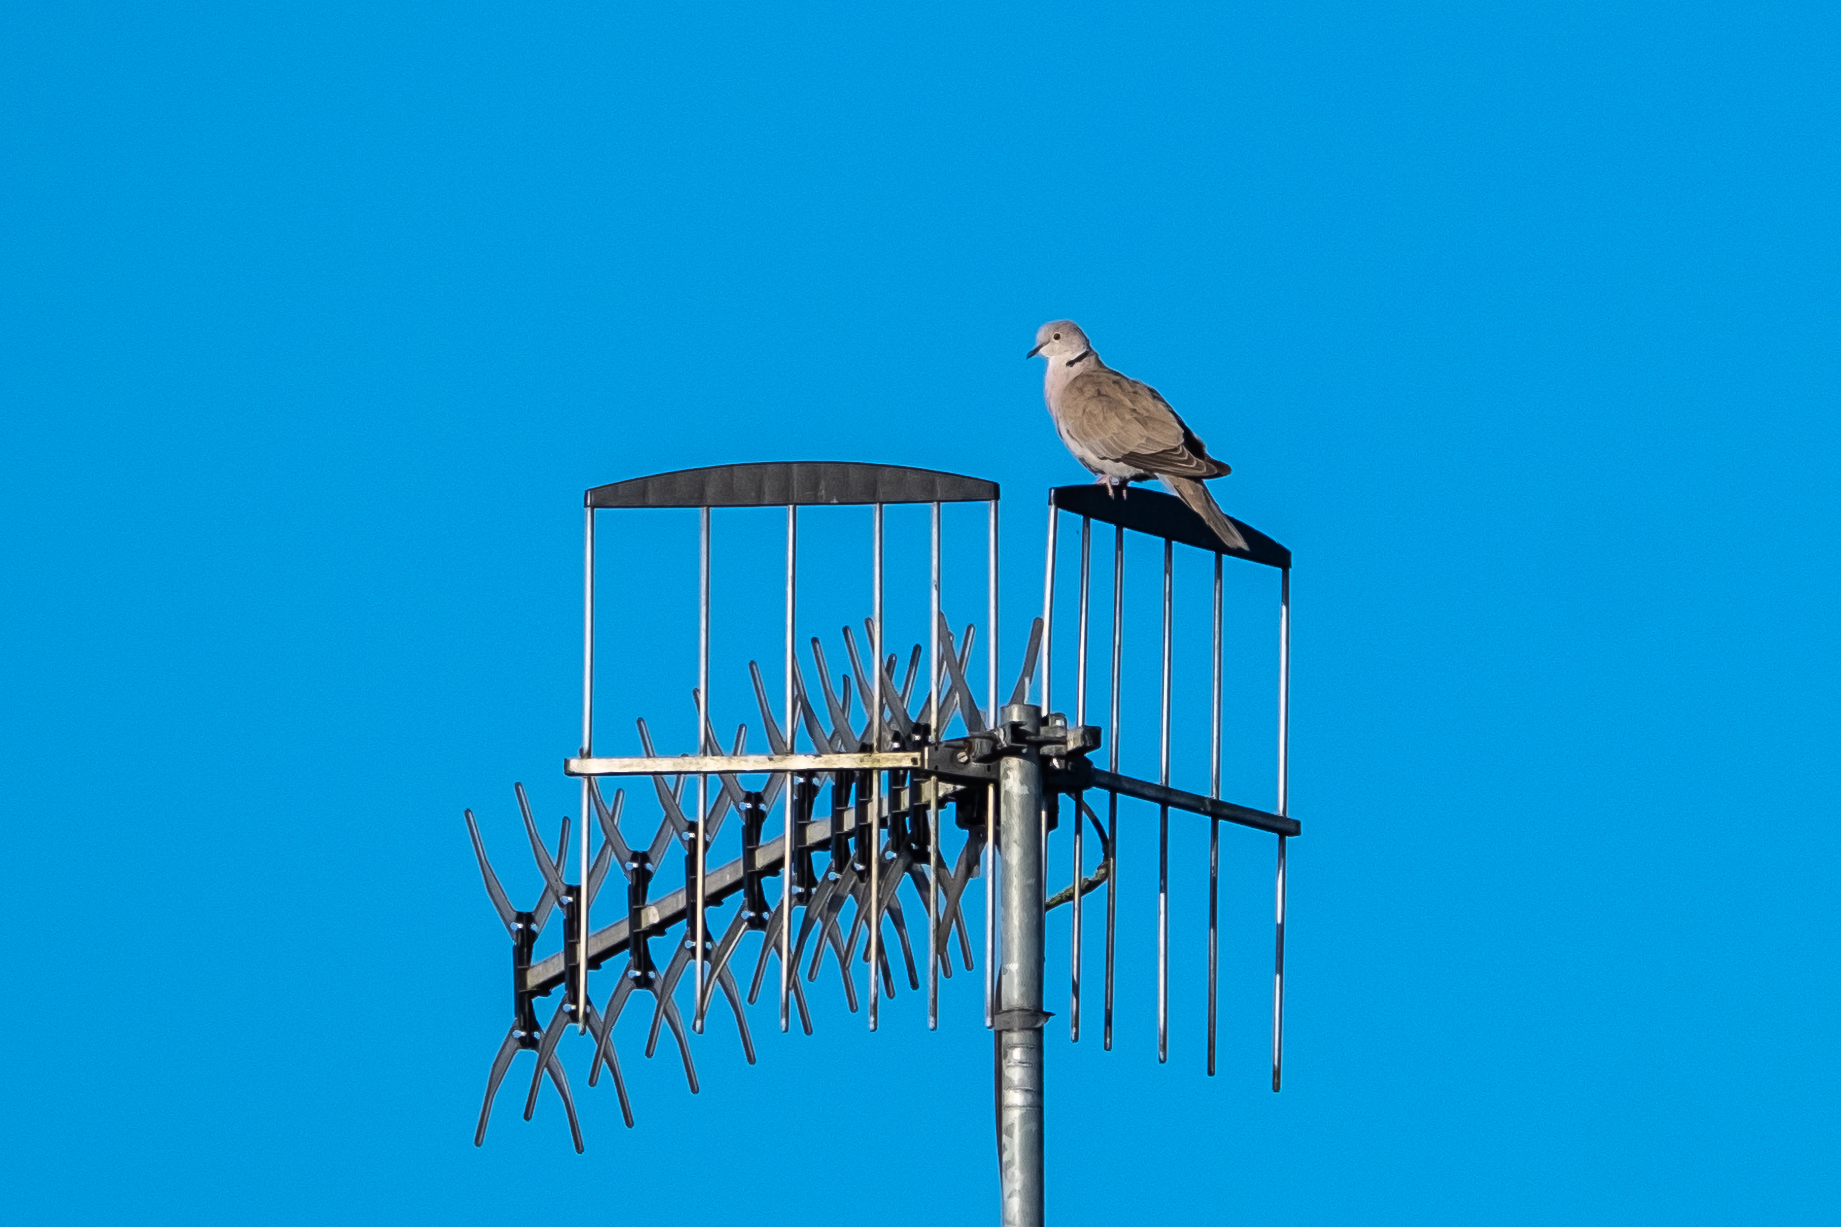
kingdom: Animalia
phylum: Chordata
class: Aves
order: Columbiformes
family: Columbidae
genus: Streptopelia
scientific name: Streptopelia decaocto
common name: Eurasian collared dove
